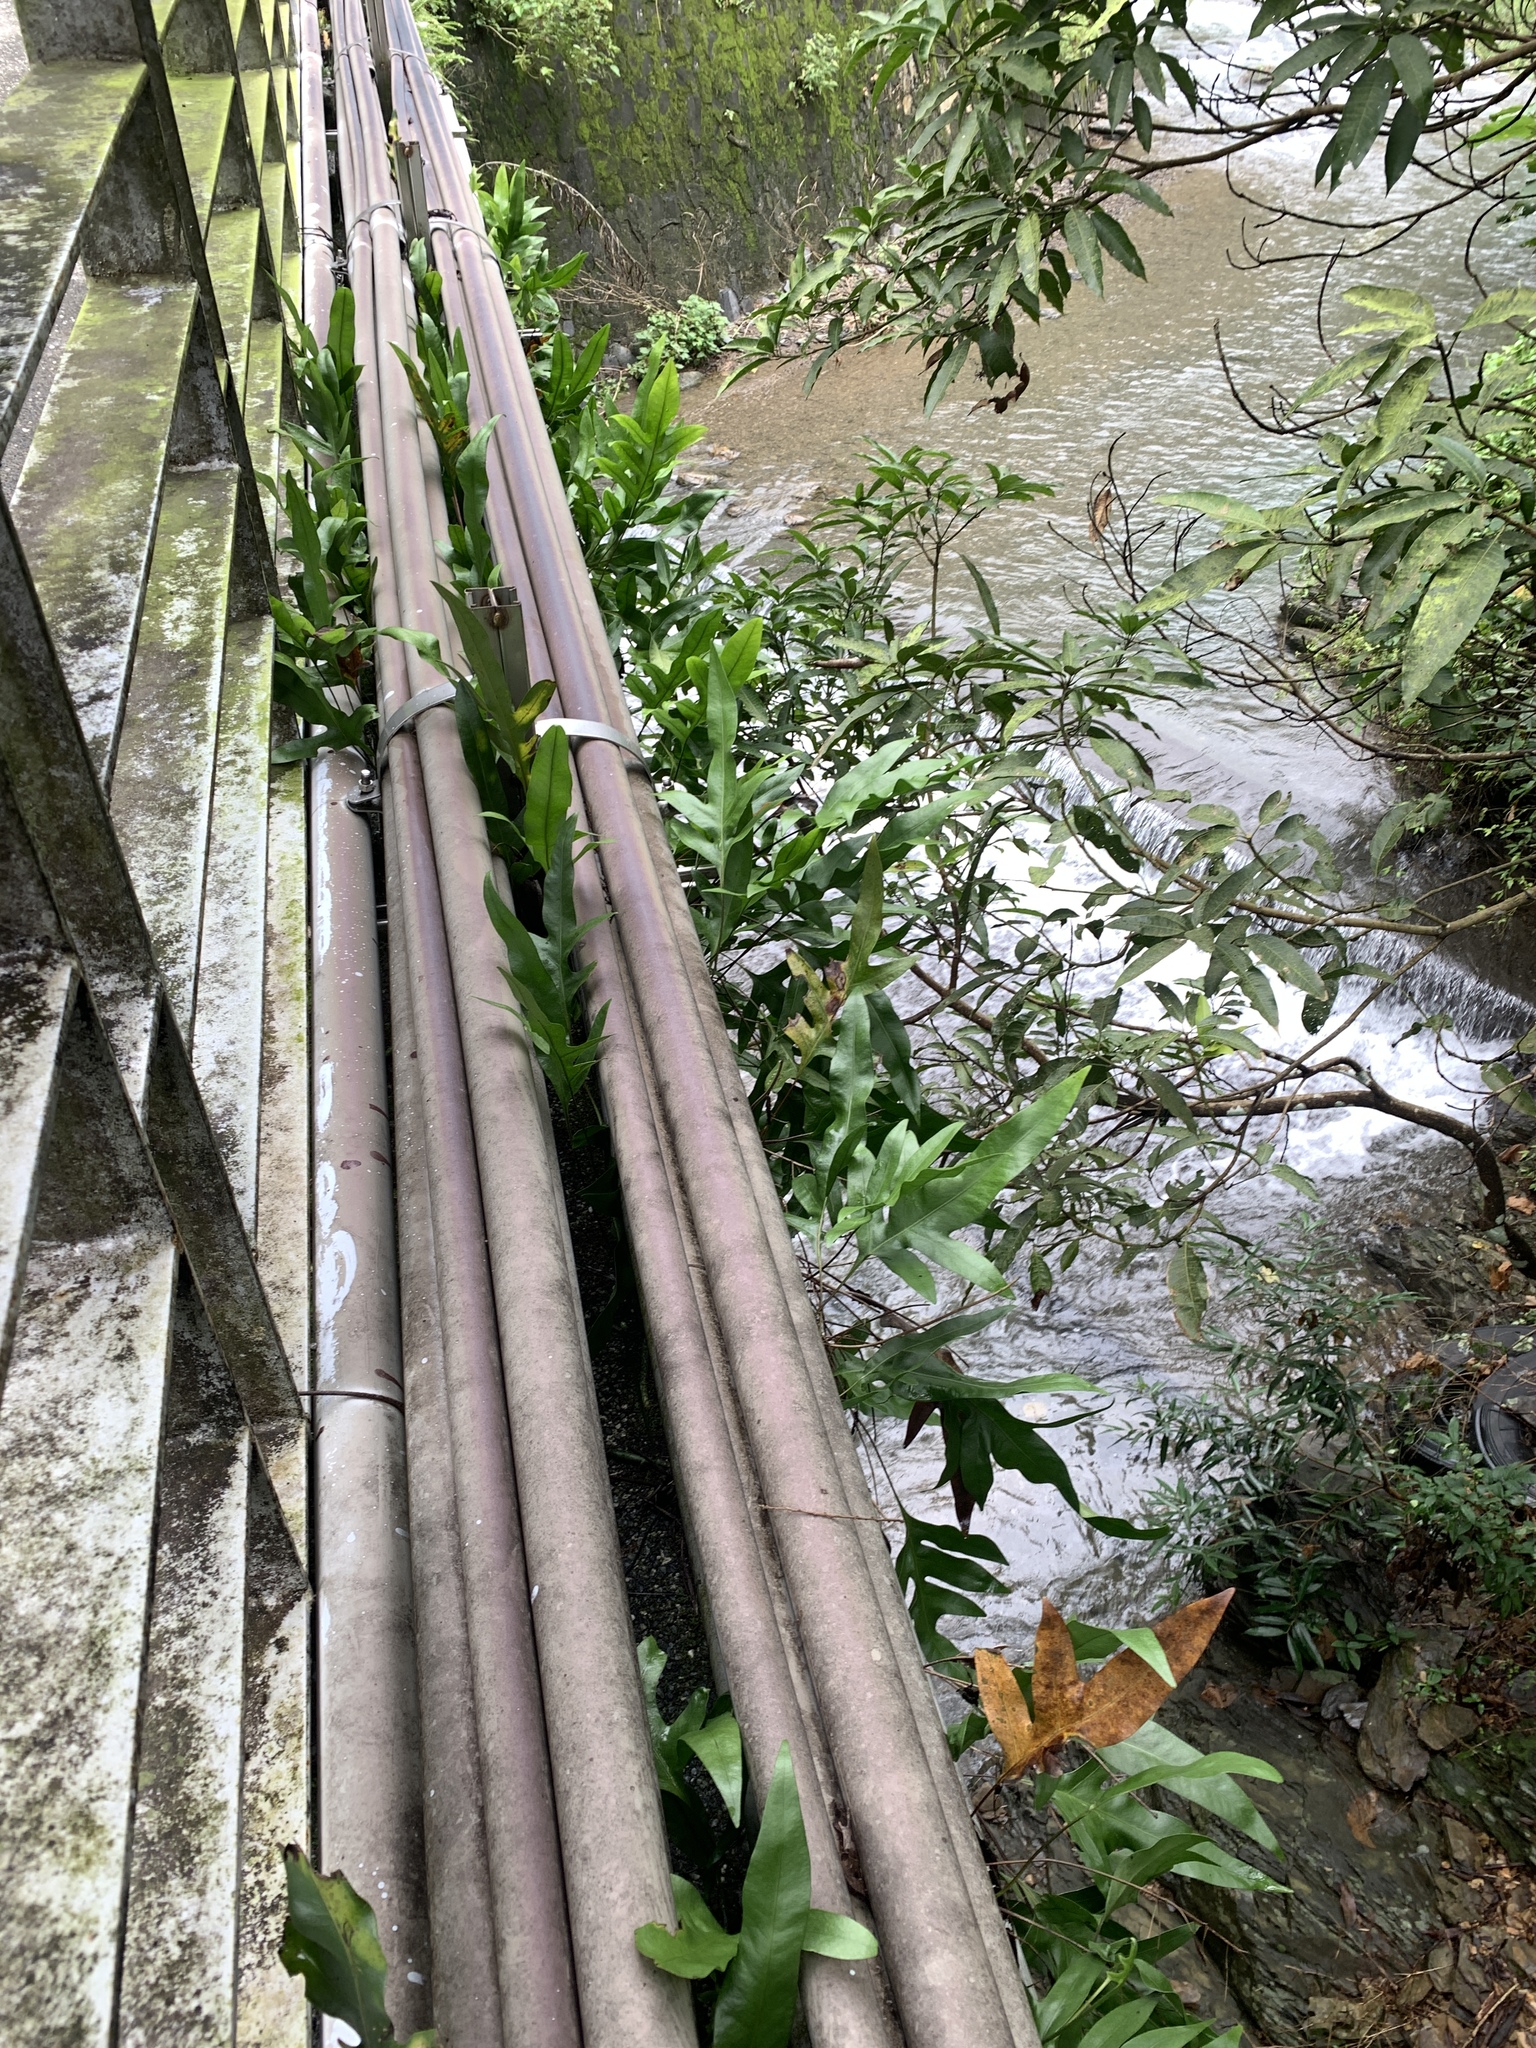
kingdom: Plantae
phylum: Tracheophyta
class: Polypodiopsida
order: Polypodiales
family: Polypodiaceae
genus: Microsorum
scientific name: Microsorum scolopendria
